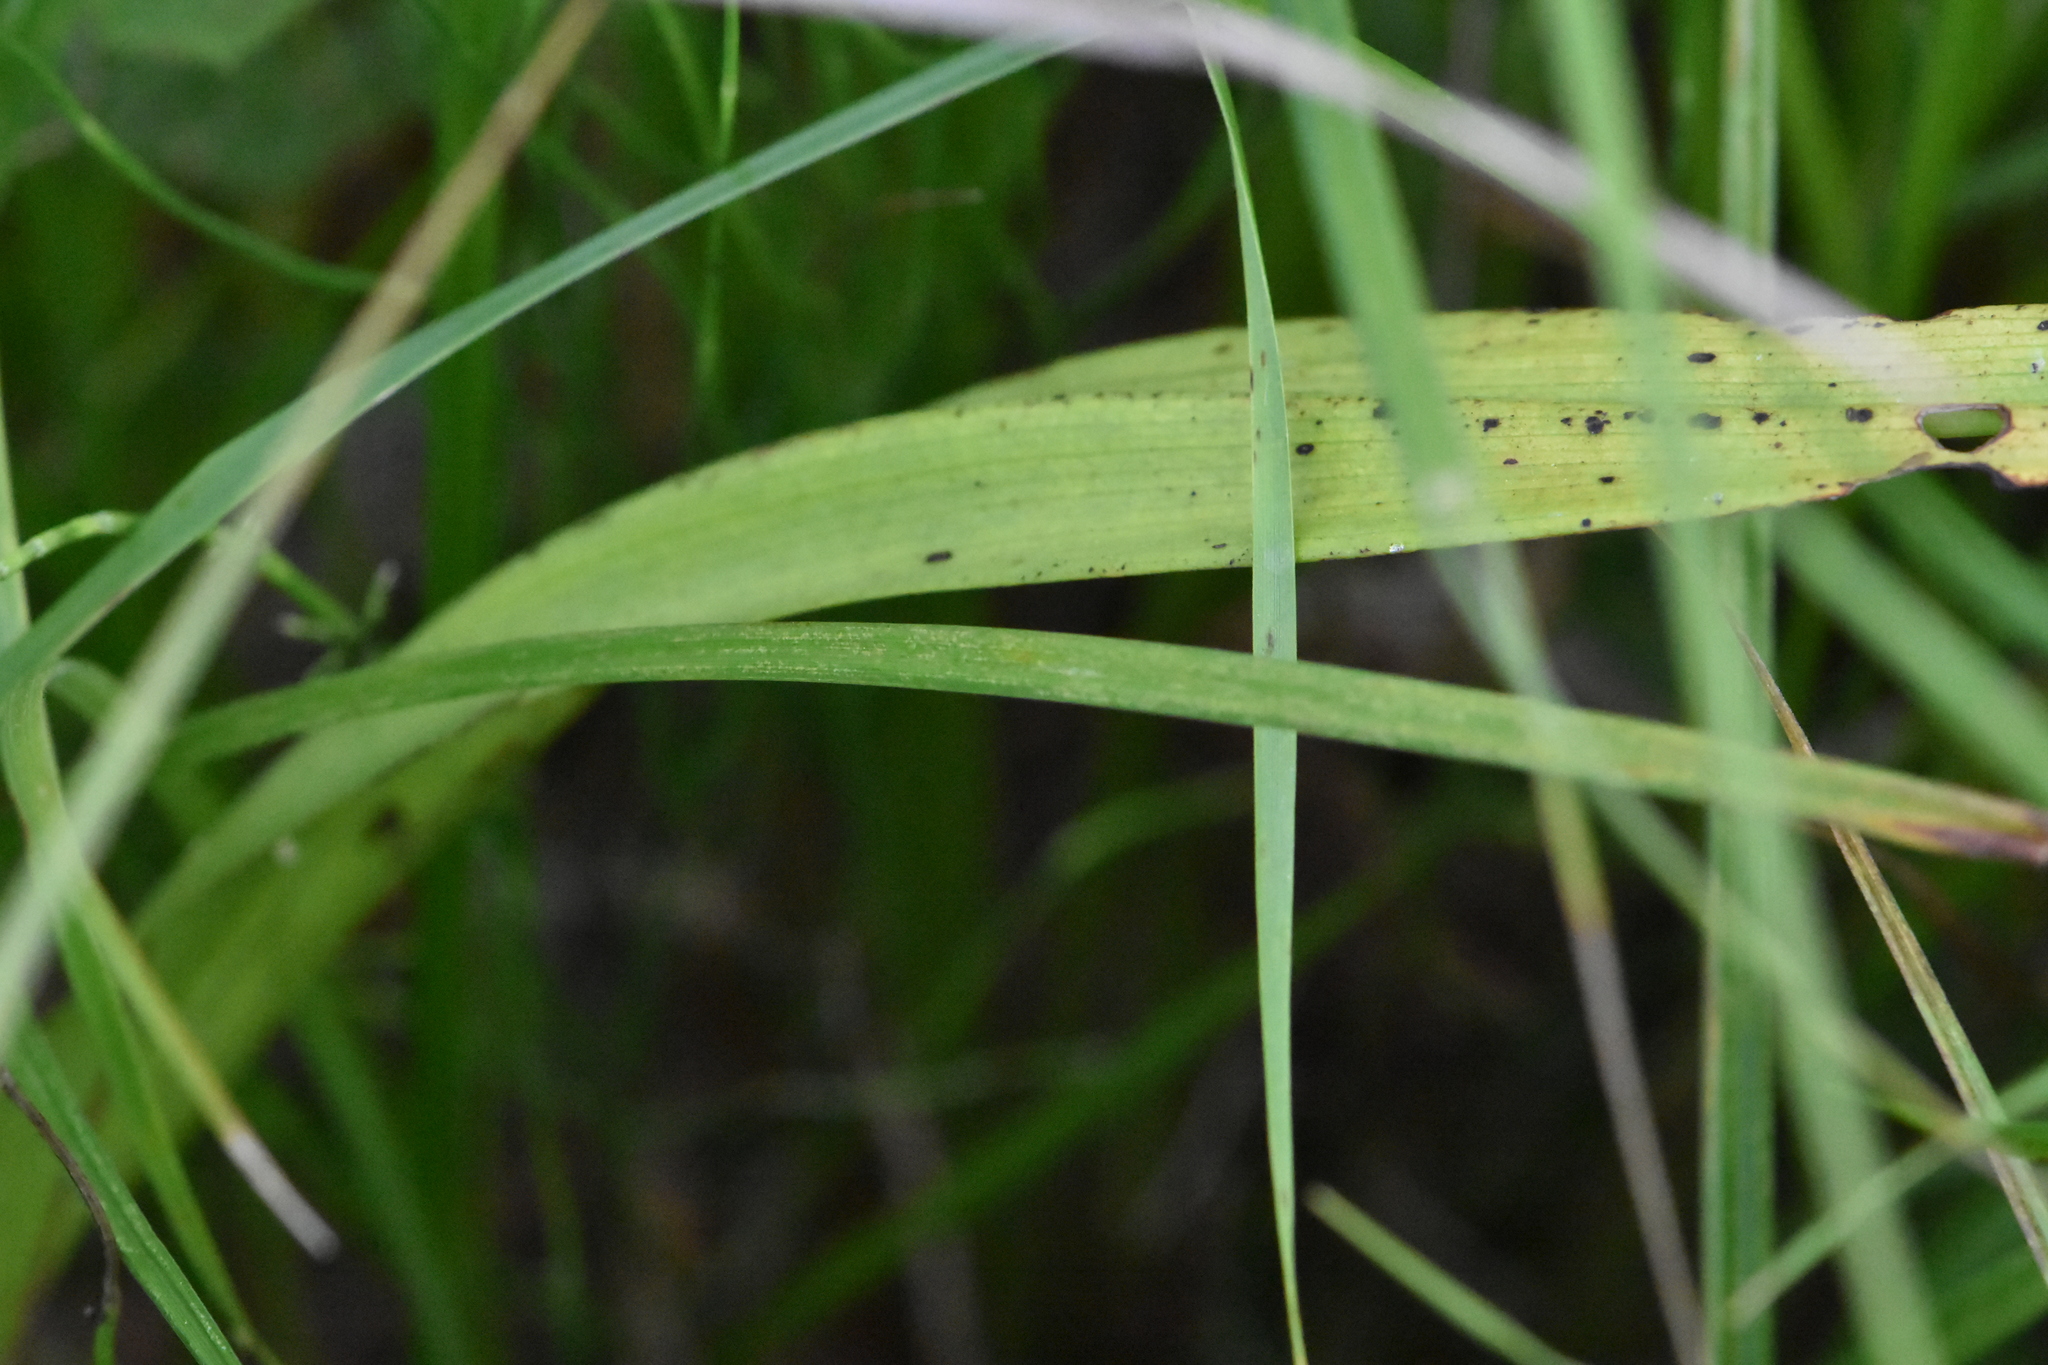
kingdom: Plantae
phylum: Tracheophyta
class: Liliopsida
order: Asparagales
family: Orchidaceae
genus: Dactylorhiza
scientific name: Dactylorhiza incarnata
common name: Early marsh-orchid
